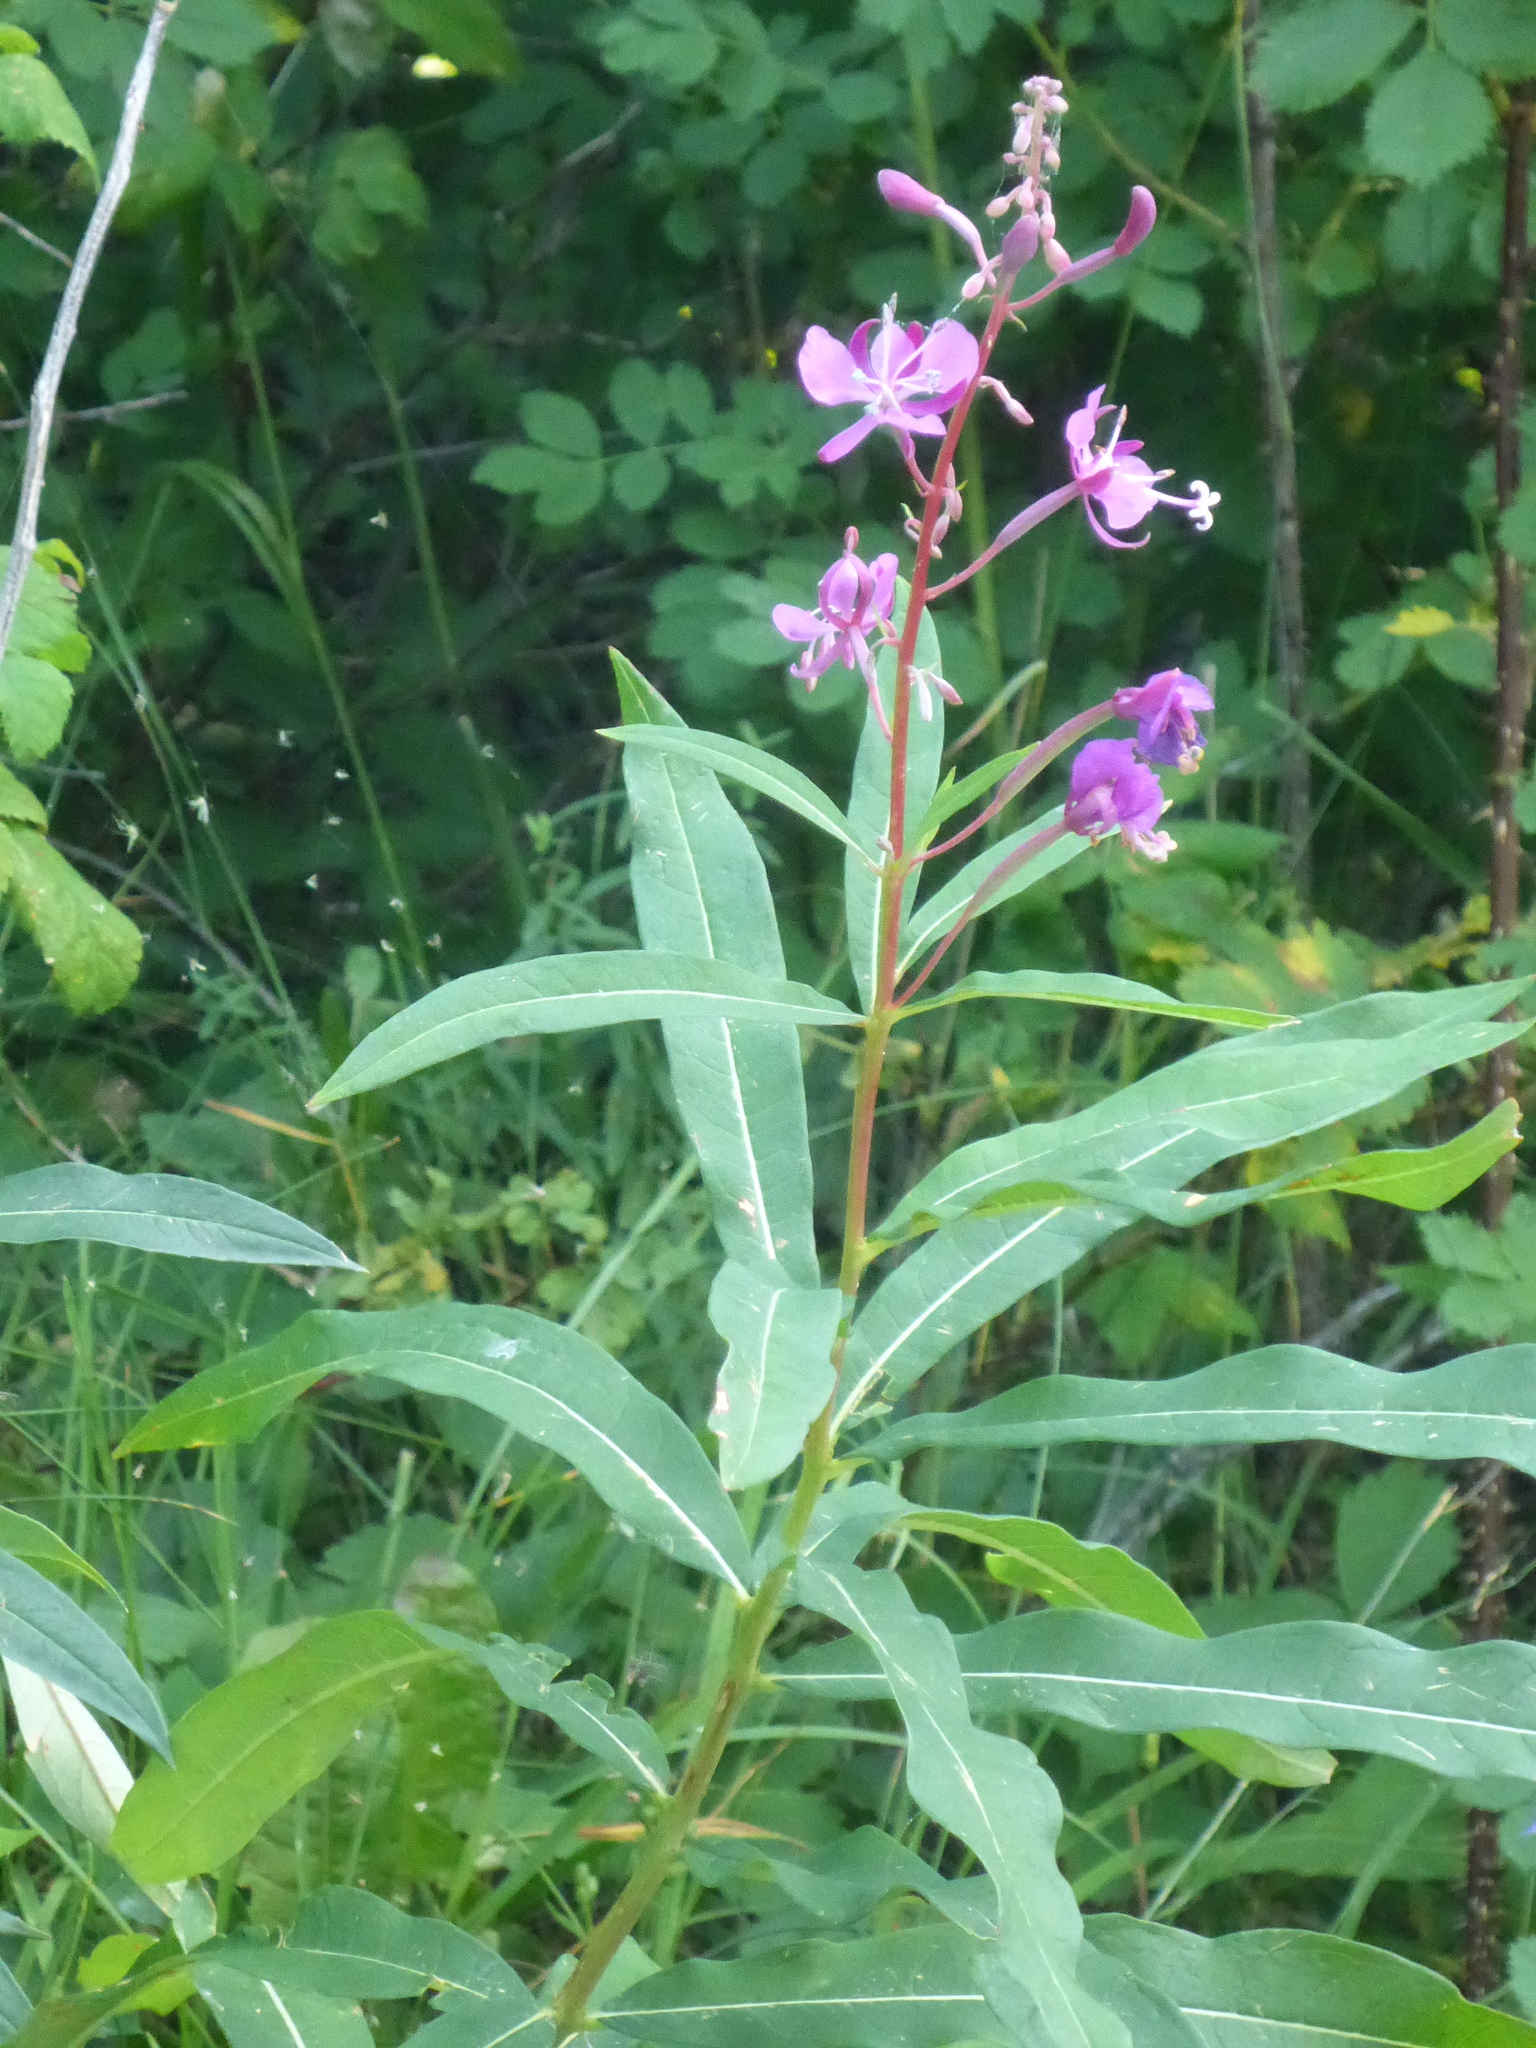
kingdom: Plantae
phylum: Tracheophyta
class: Magnoliopsida
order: Myrtales
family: Onagraceae
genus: Chamaenerion
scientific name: Chamaenerion angustifolium
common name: Fireweed
